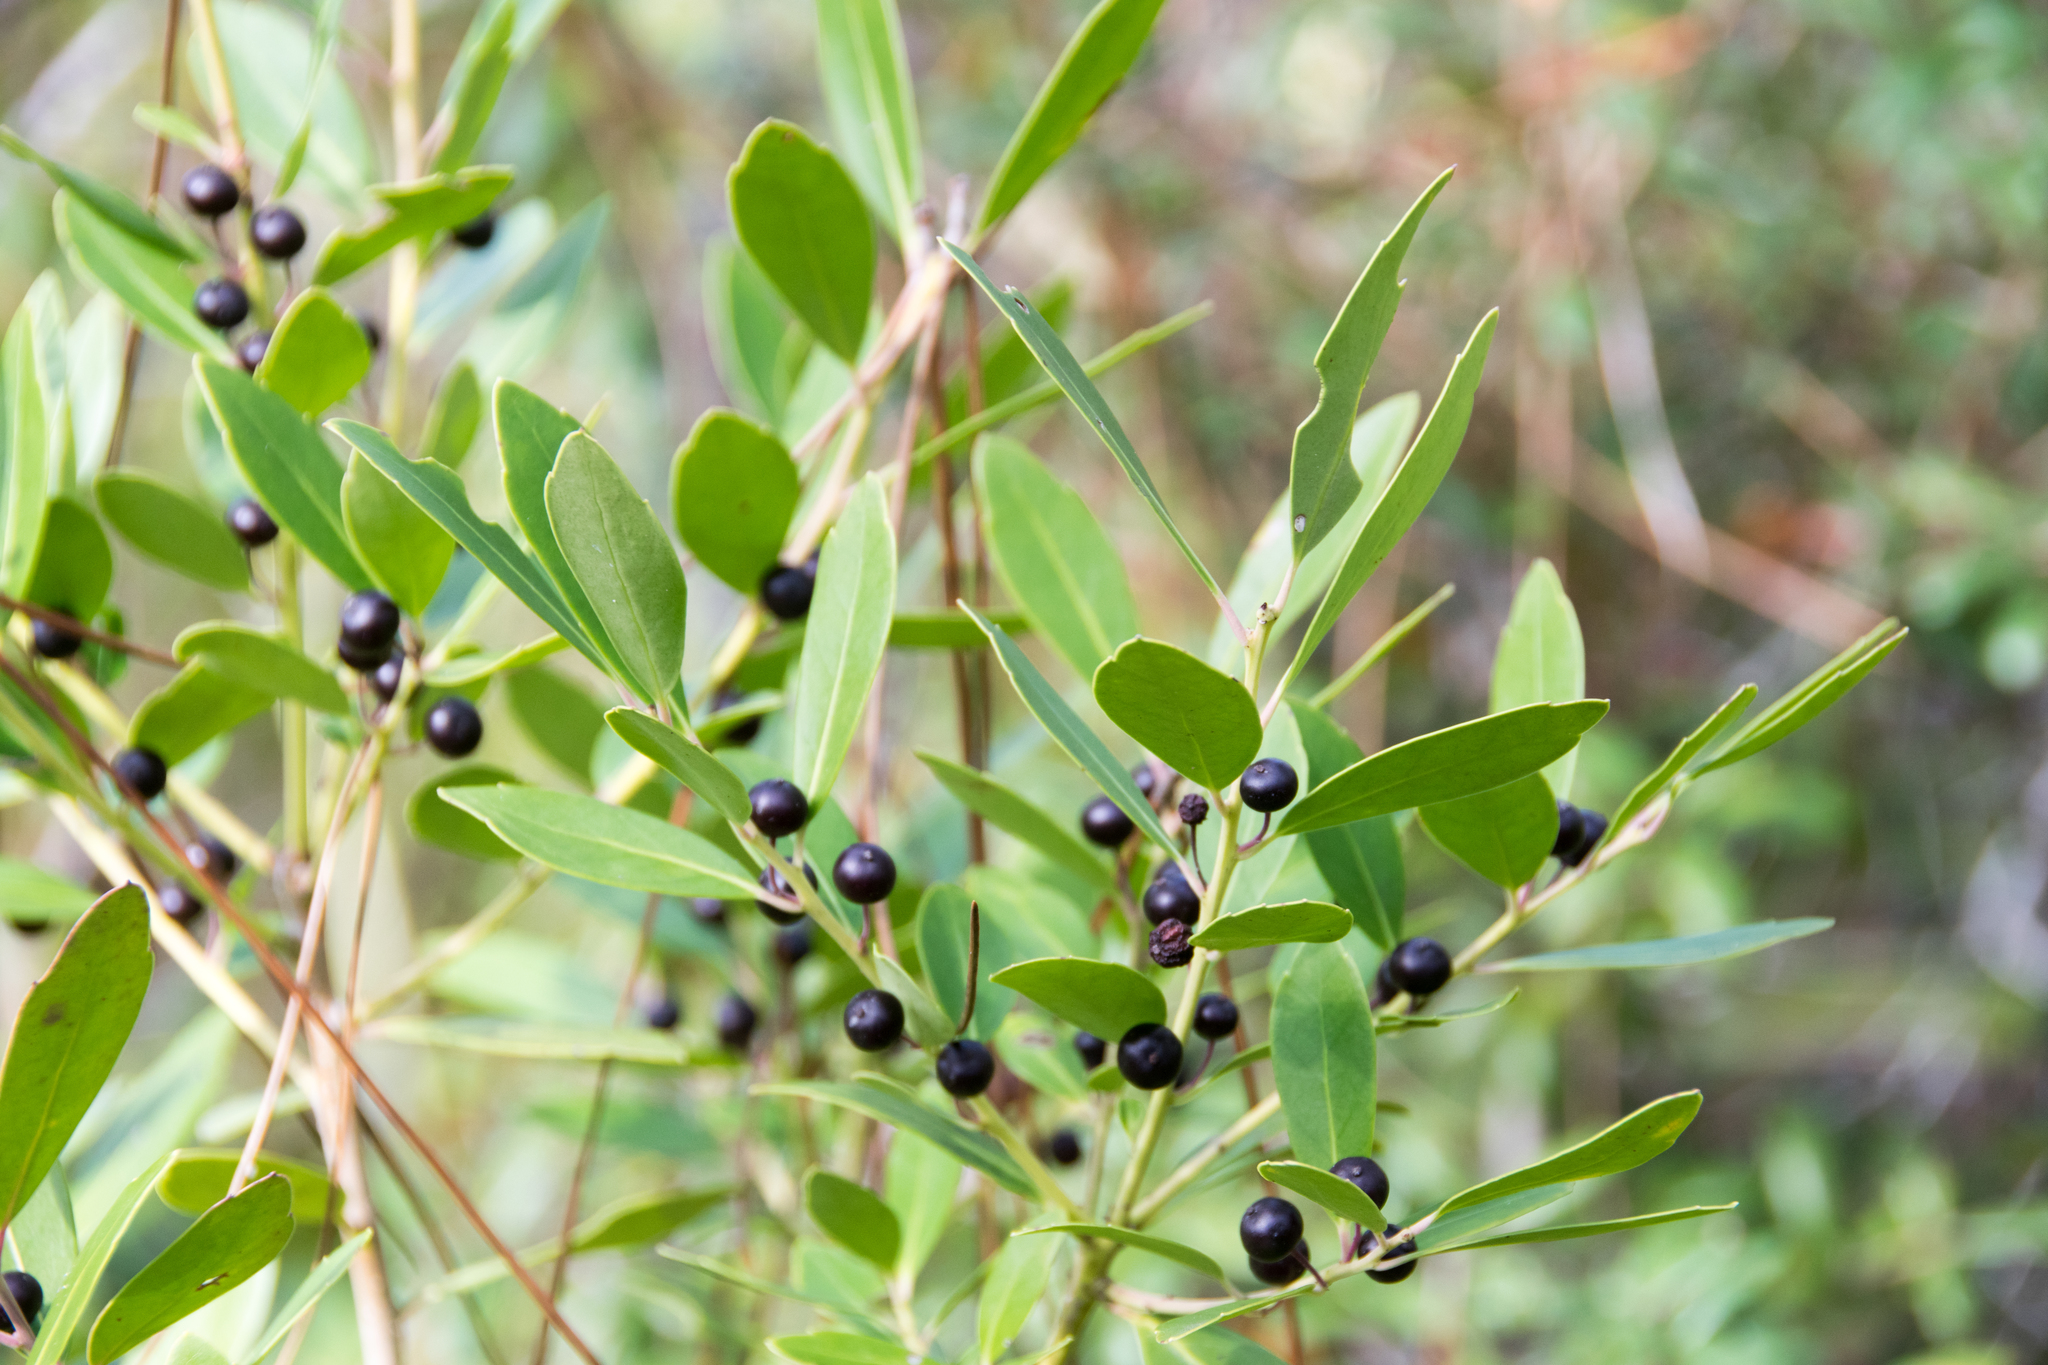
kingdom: Plantae
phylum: Tracheophyta
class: Magnoliopsida
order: Aquifoliales
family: Aquifoliaceae
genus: Ilex
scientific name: Ilex glabra
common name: Bitter gallberry
